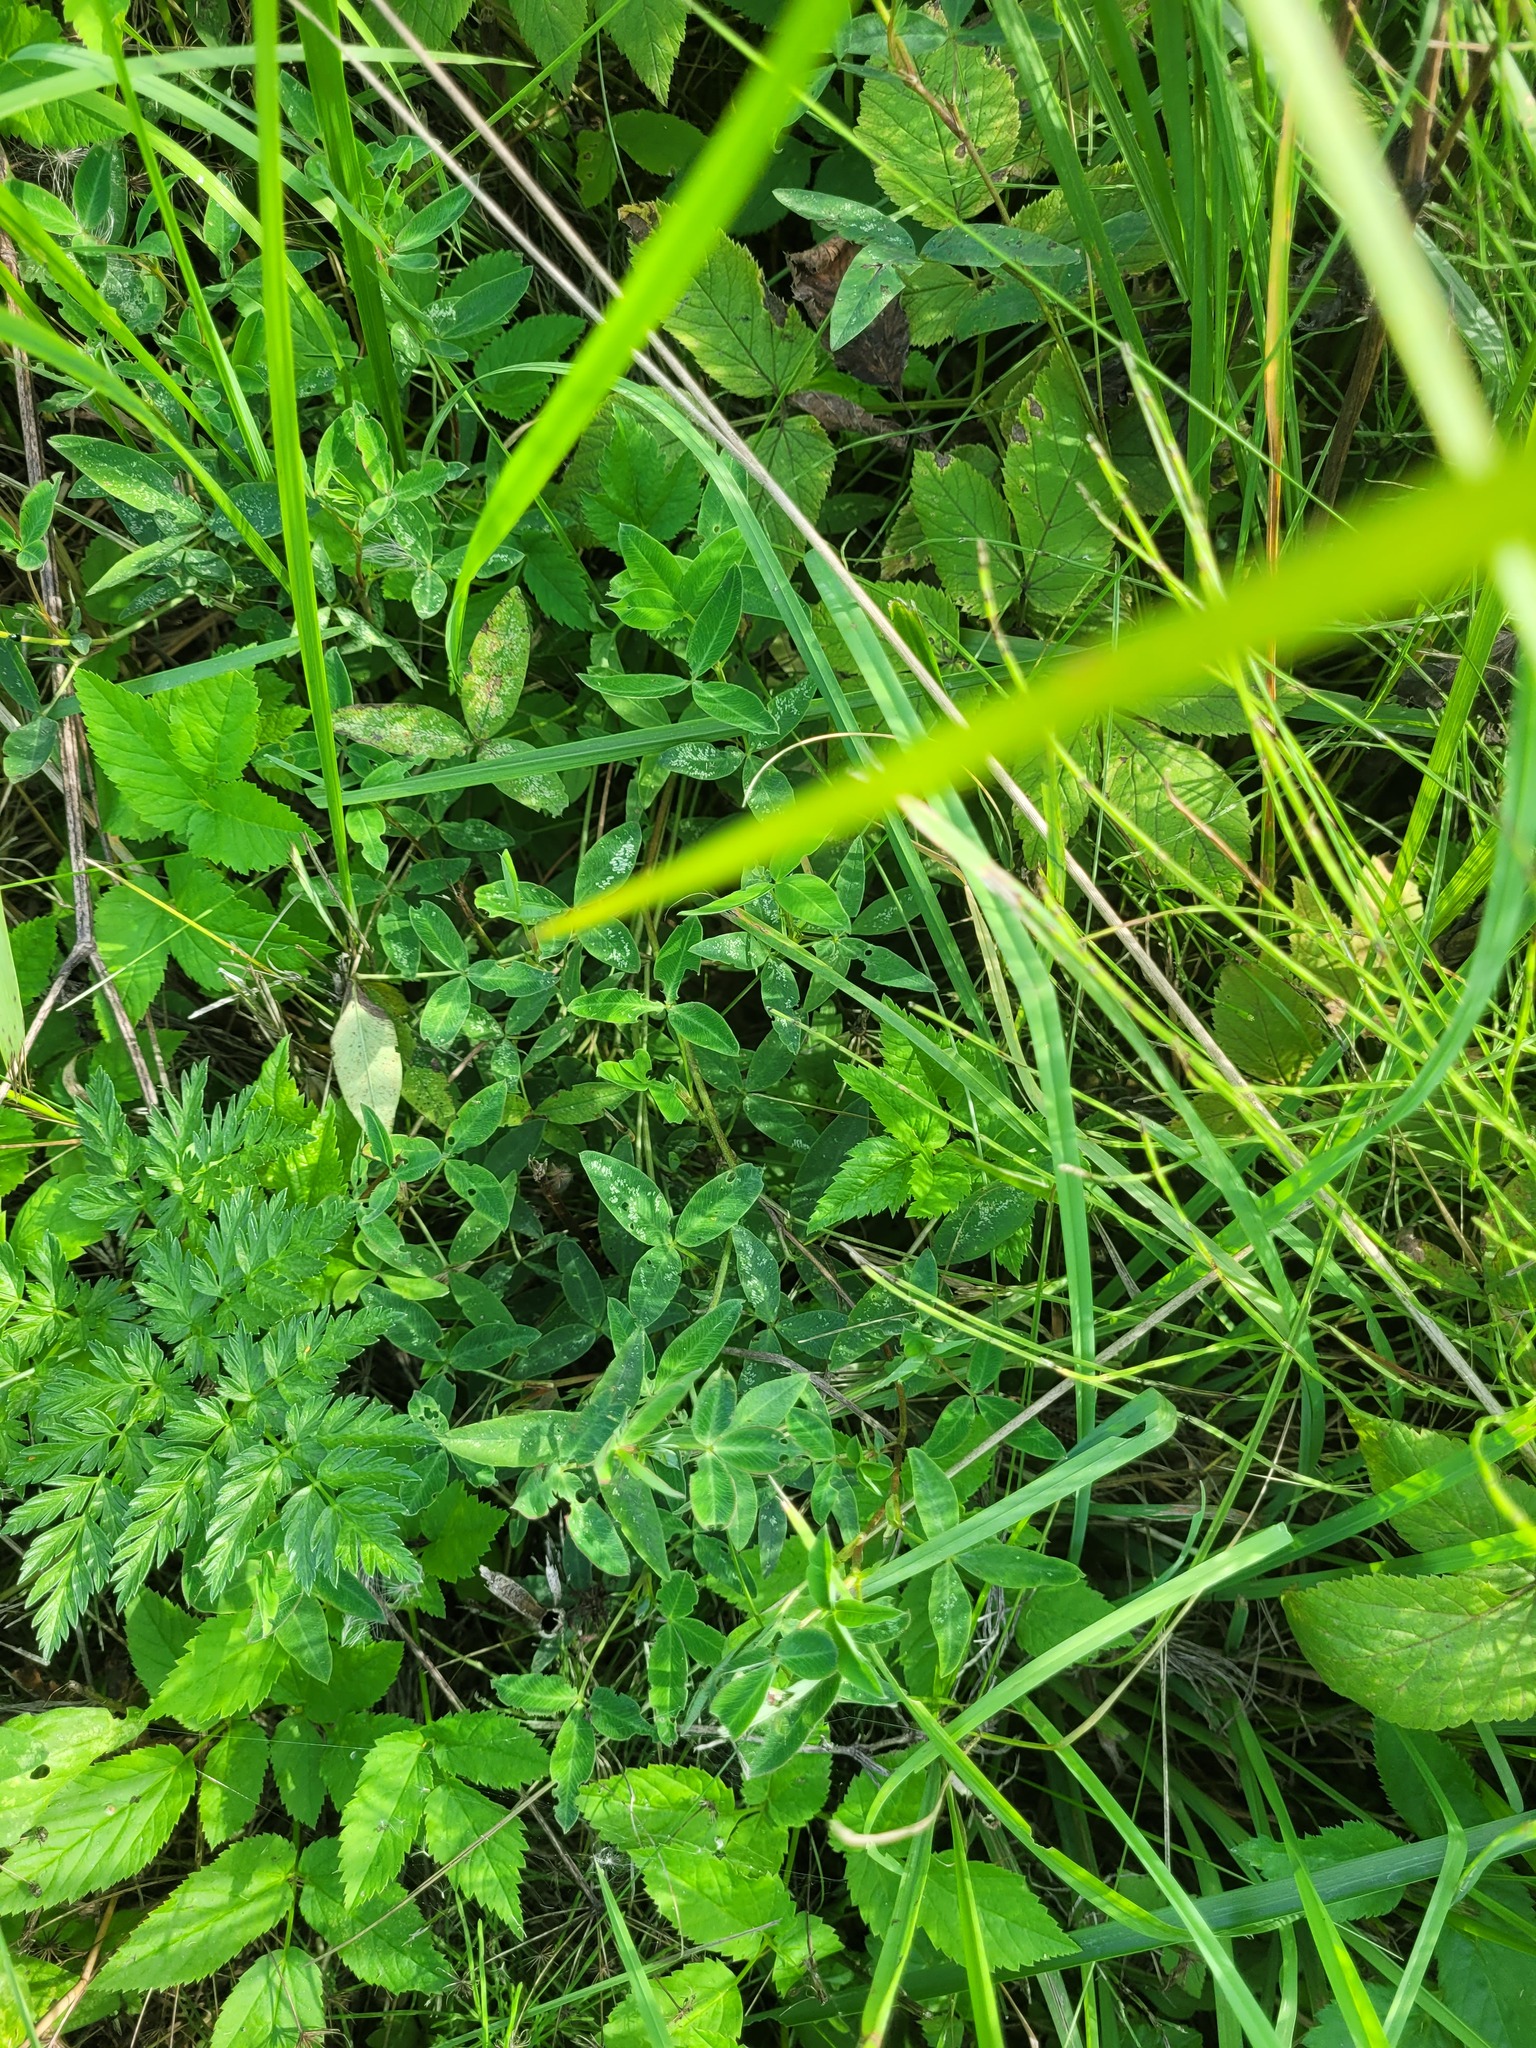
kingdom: Plantae
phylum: Tracheophyta
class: Magnoliopsida
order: Fabales
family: Fabaceae
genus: Trifolium
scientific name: Trifolium medium
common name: Zigzag clover
